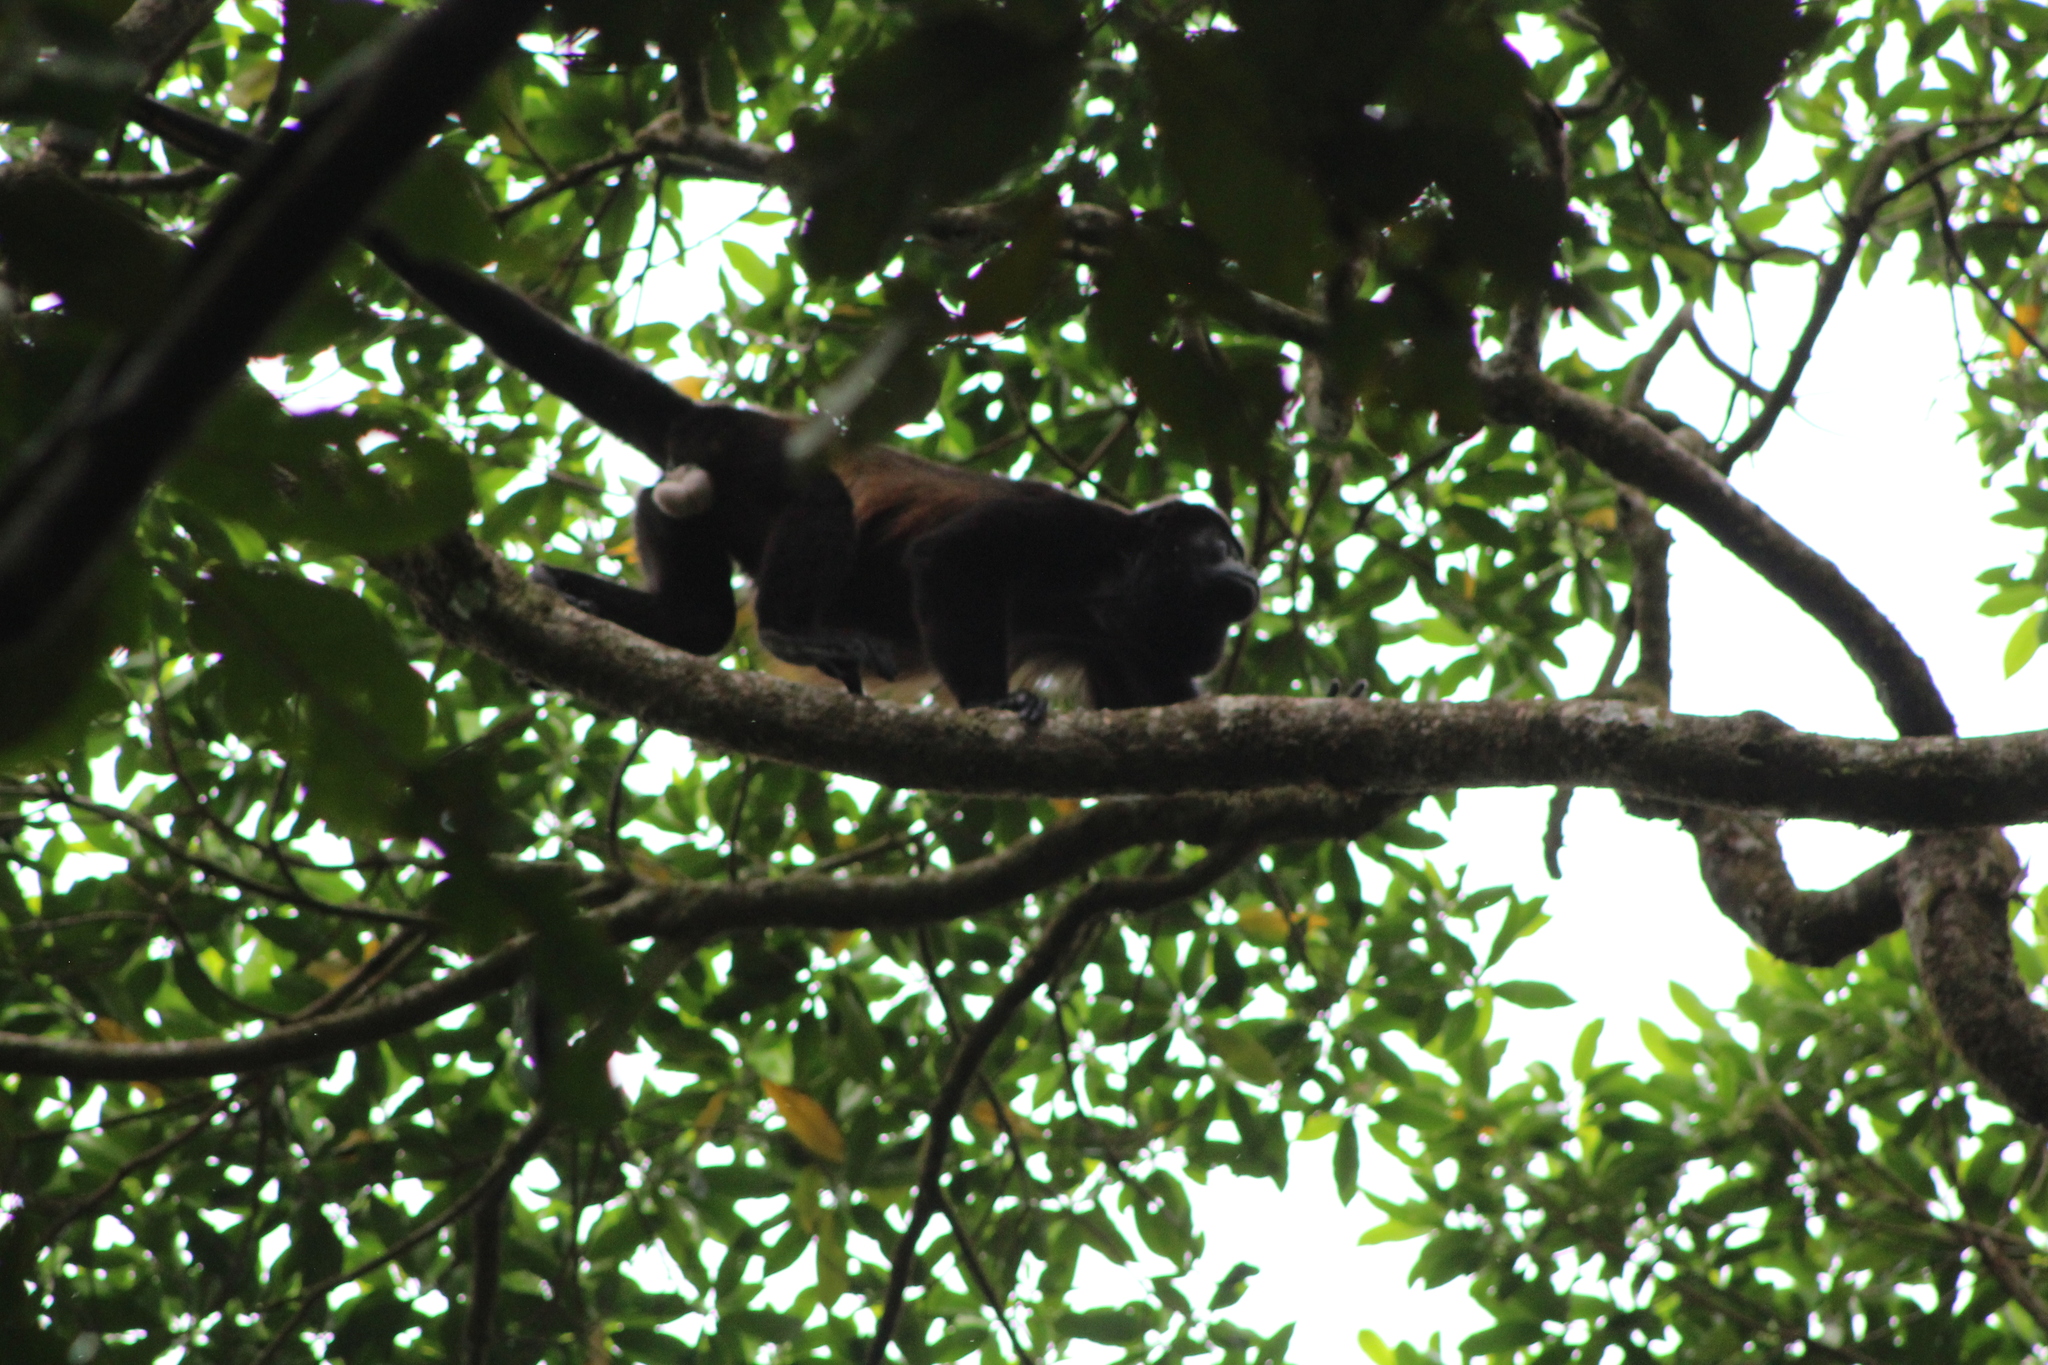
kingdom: Animalia
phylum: Chordata
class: Mammalia
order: Primates
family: Atelidae
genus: Alouatta
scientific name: Alouatta palliata
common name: Mantled howler
